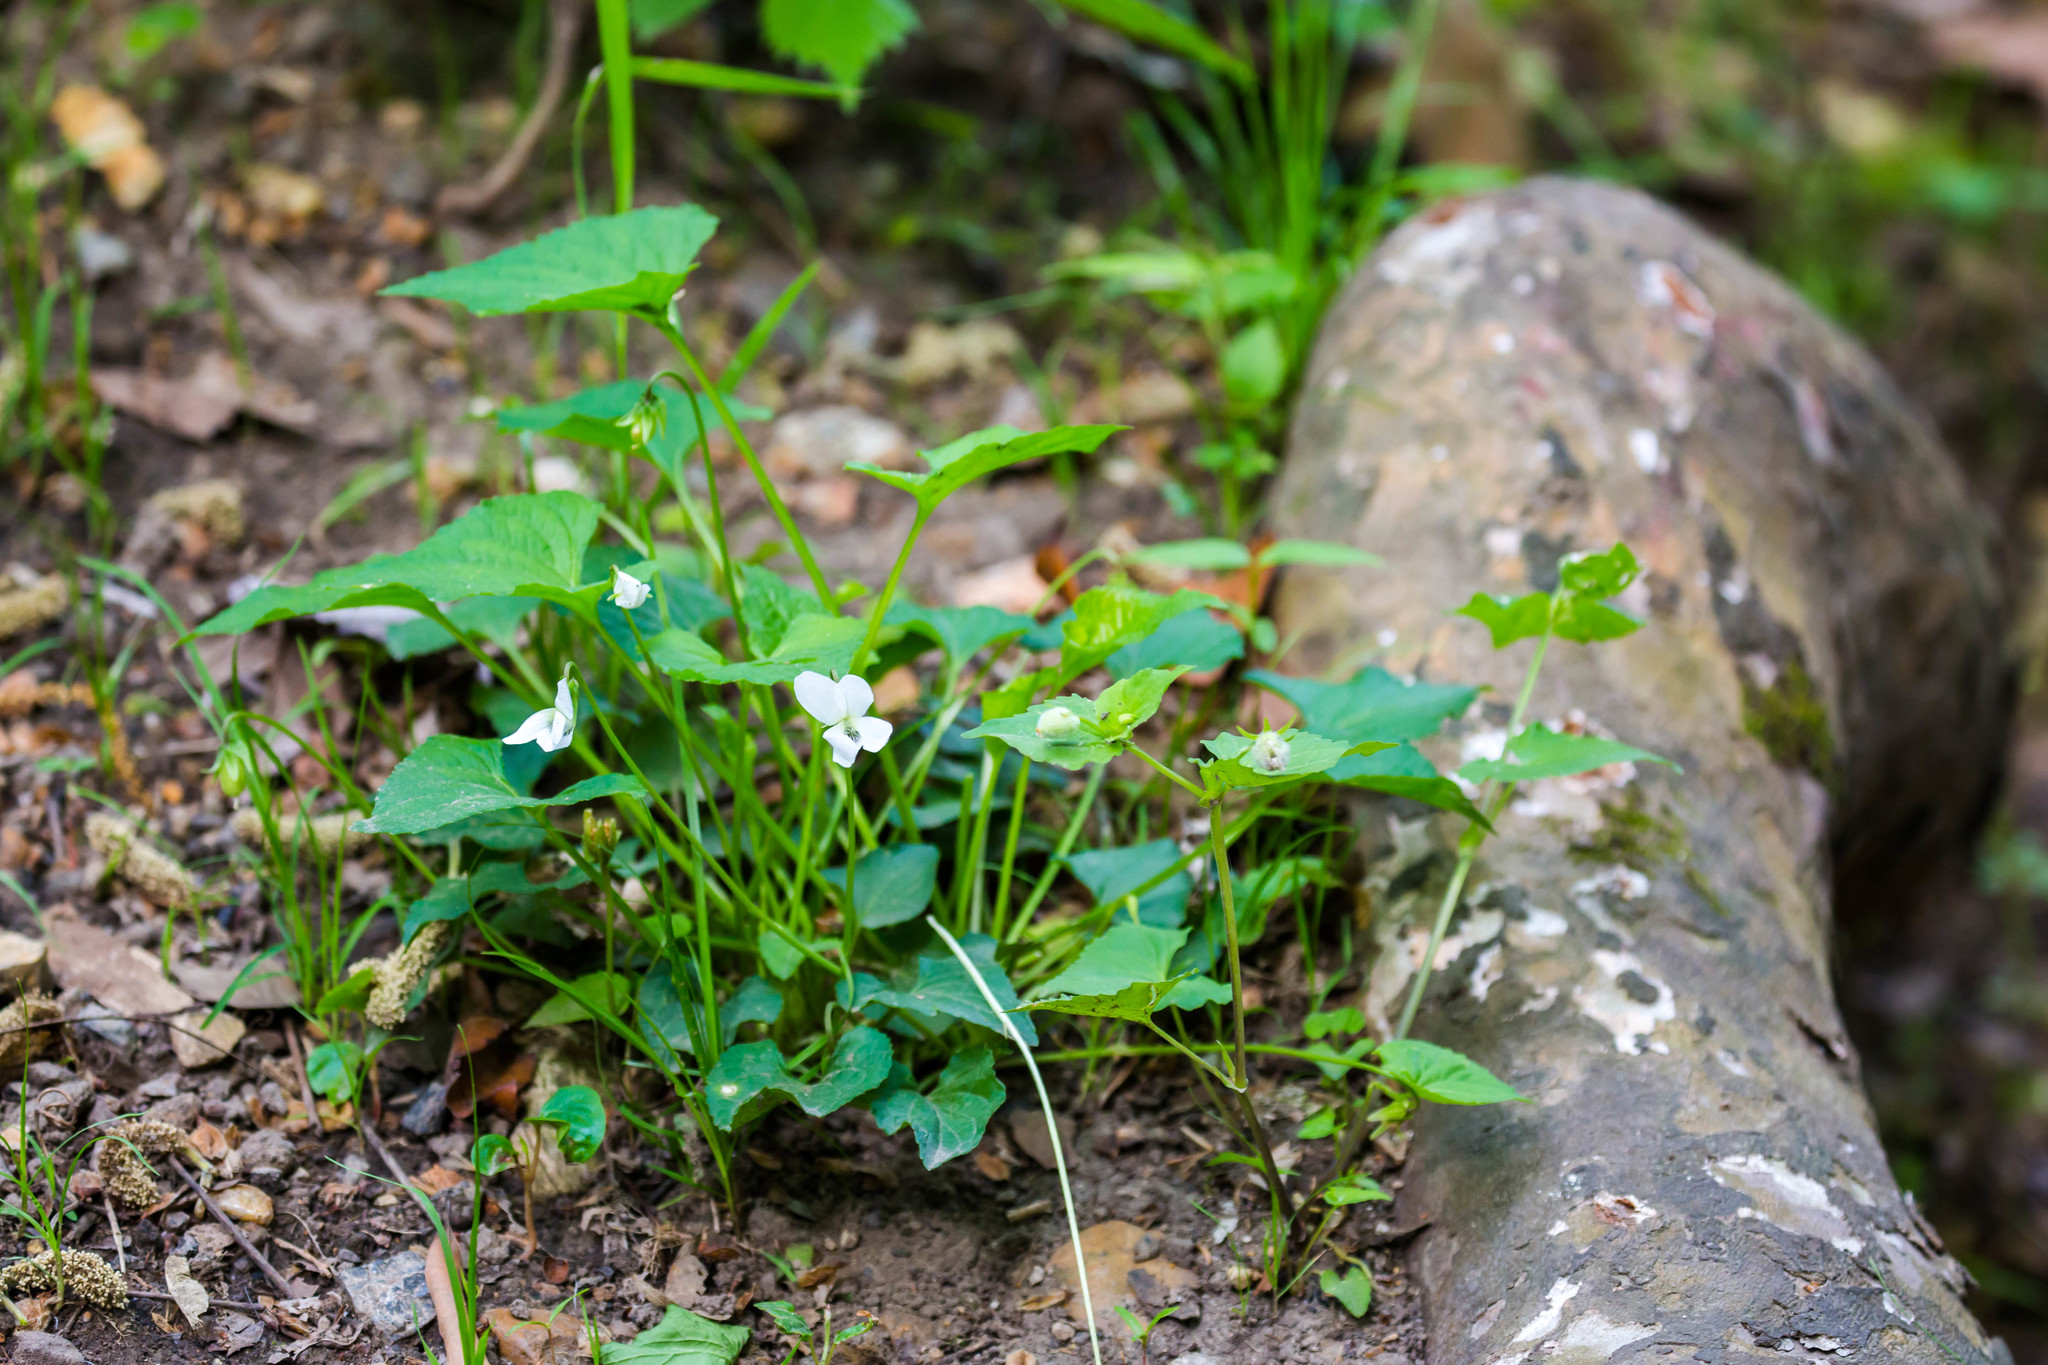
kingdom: Plantae
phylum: Tracheophyta
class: Magnoliopsida
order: Malpighiales
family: Violaceae
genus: Viola
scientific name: Viola sororia
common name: Dooryard violet
